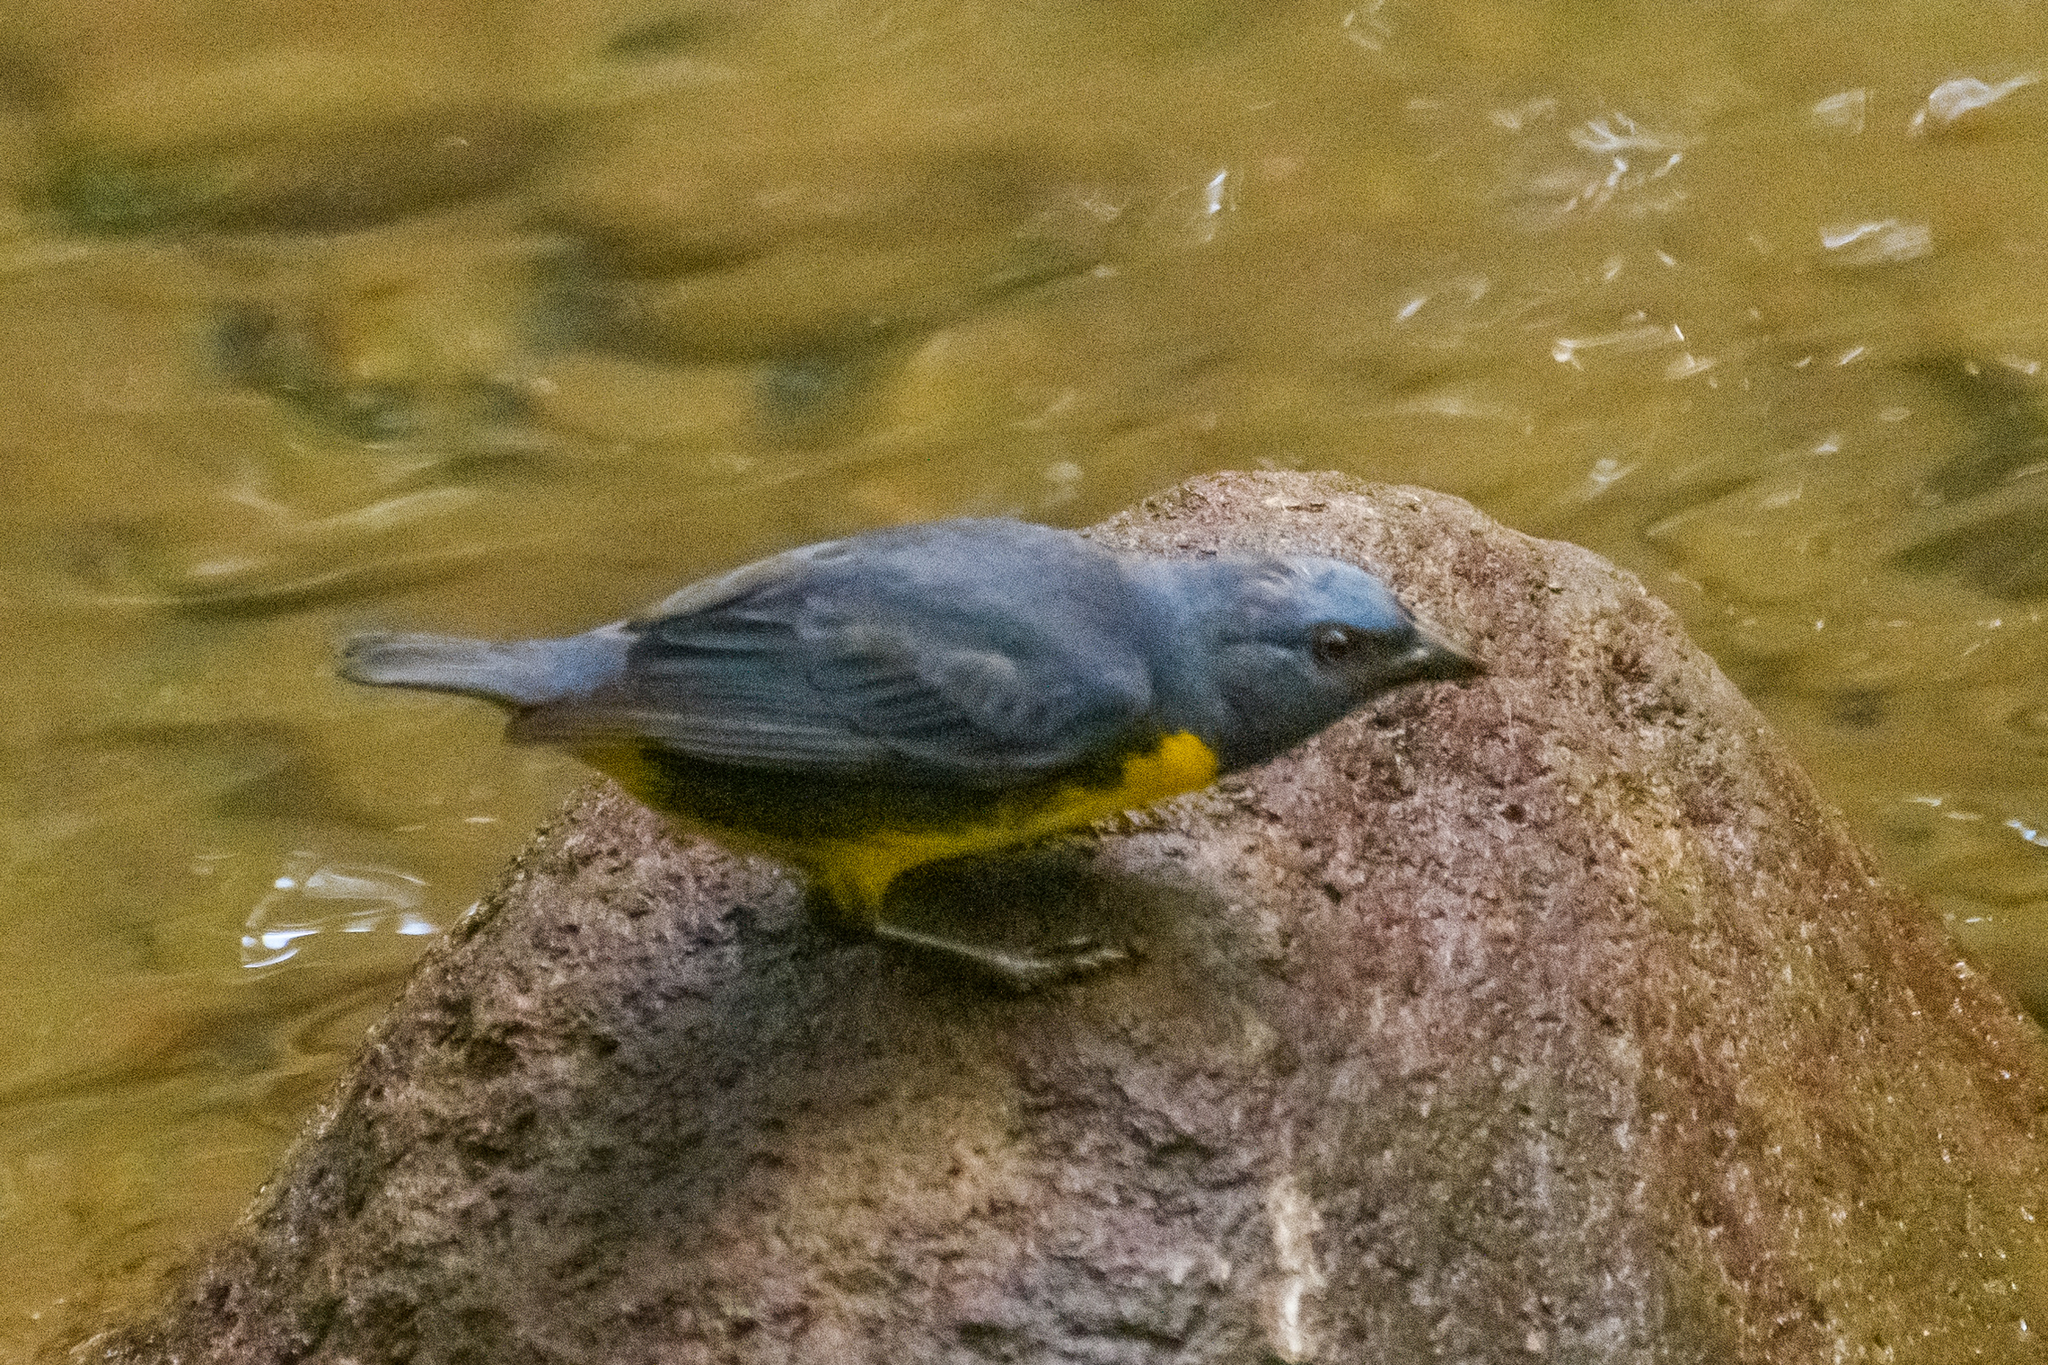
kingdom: Animalia
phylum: Chordata
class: Aves
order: Passeriformes
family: Thraupidae
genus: Bangsia
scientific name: Bangsia arcaei
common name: Blue-and-gold tanager
